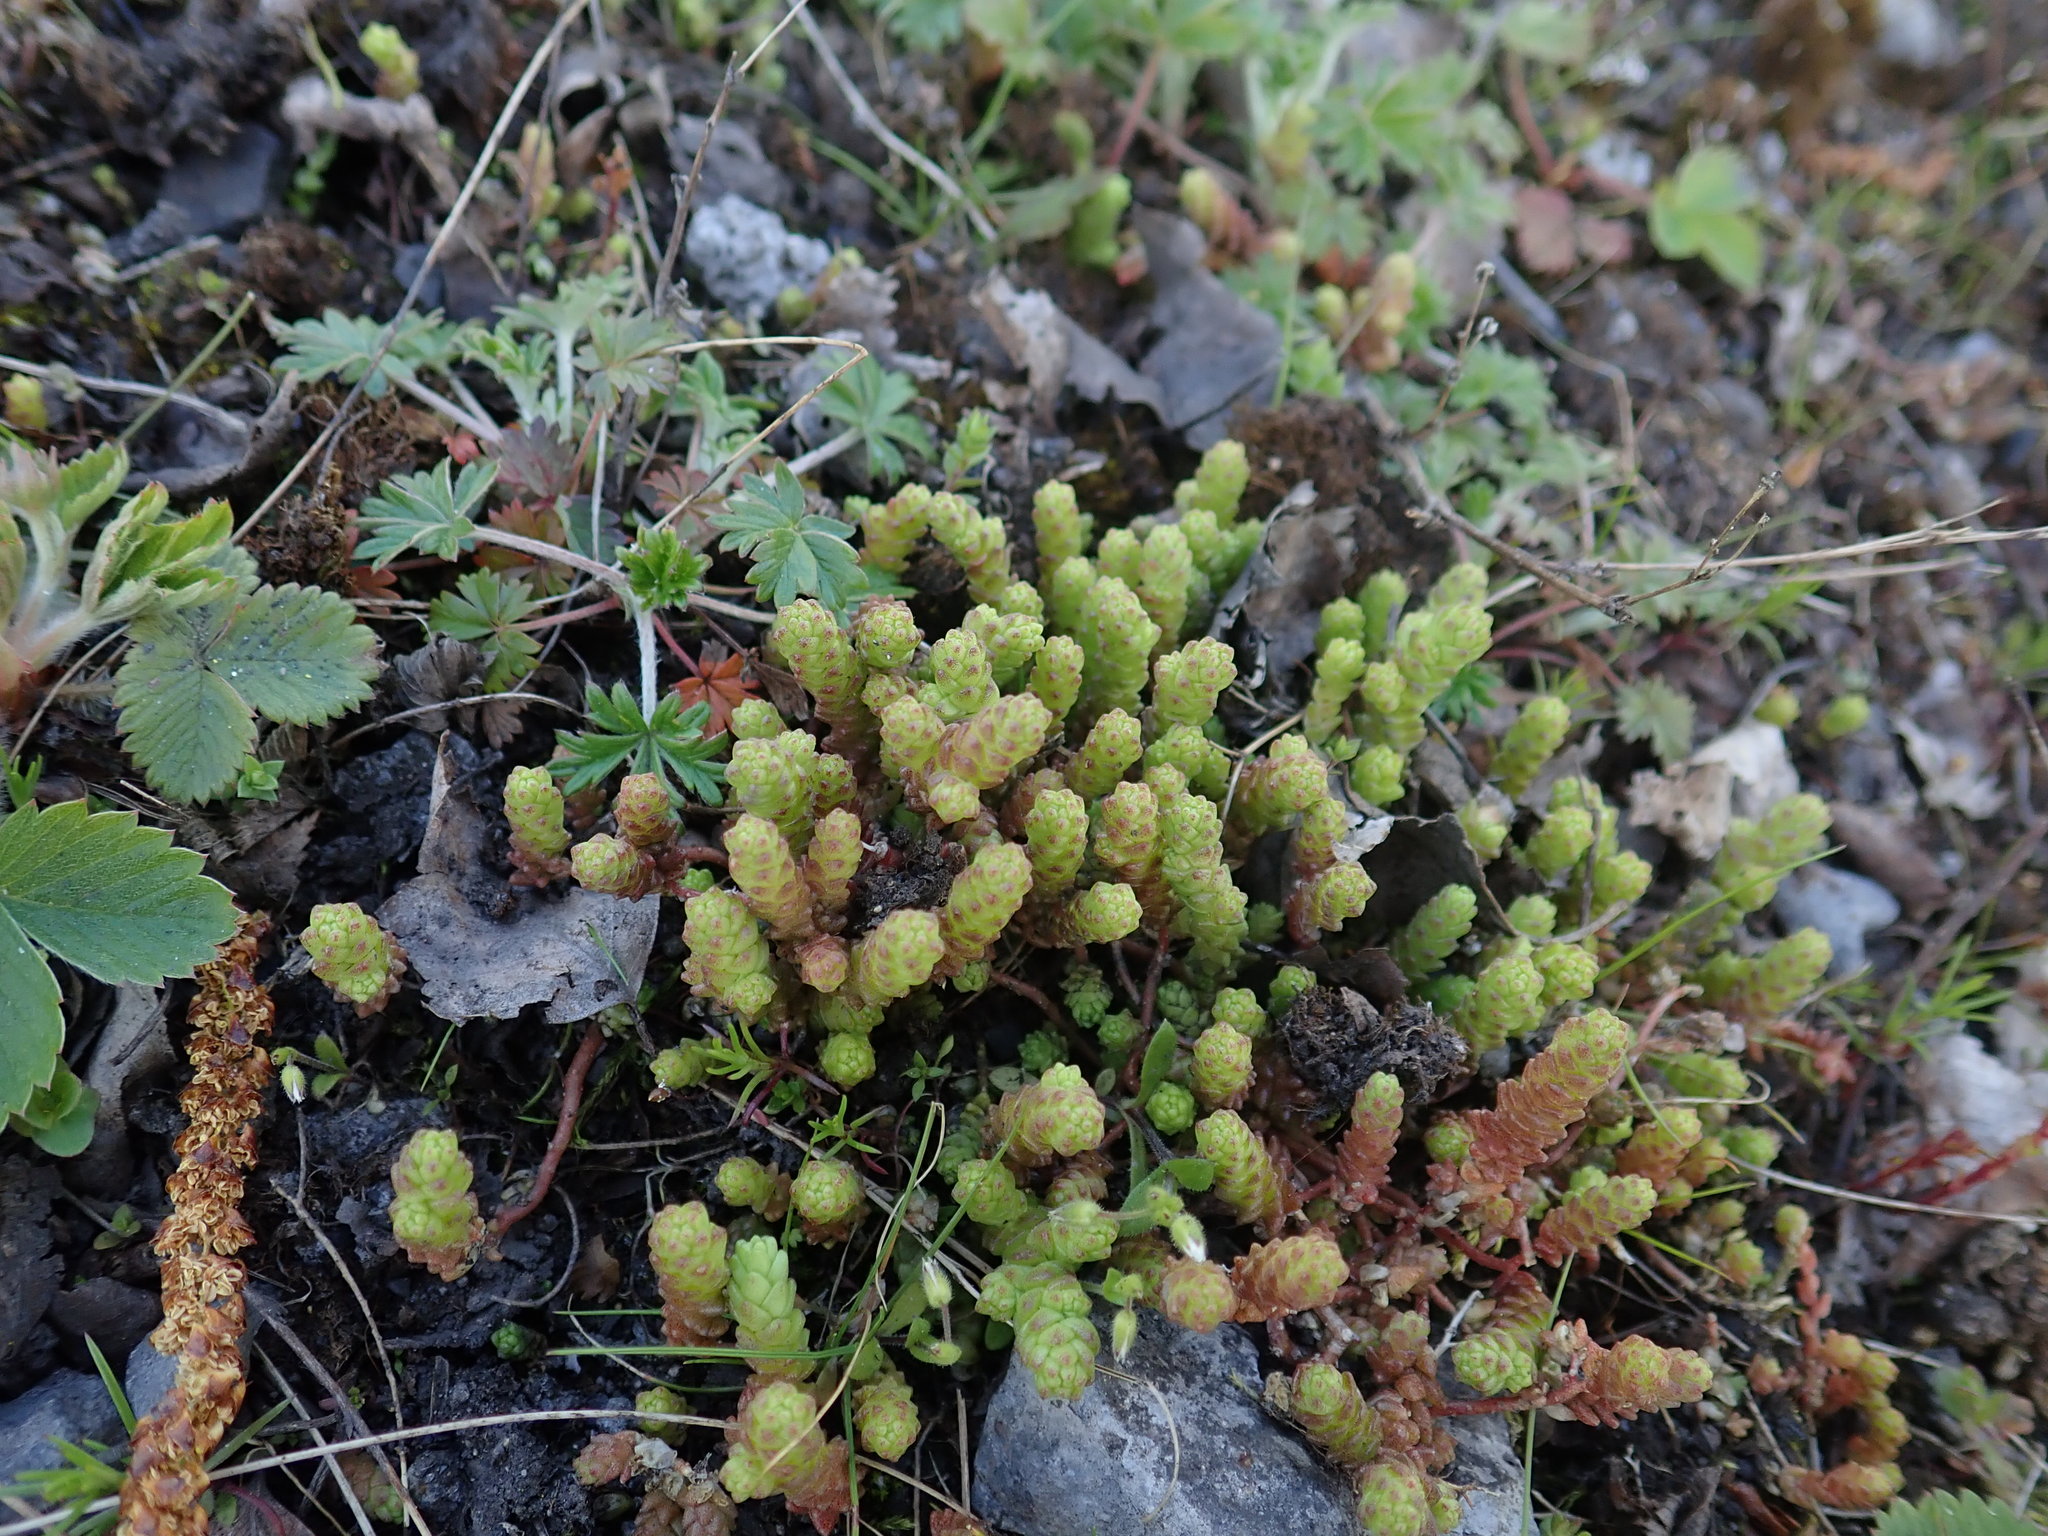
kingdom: Plantae
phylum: Tracheophyta
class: Magnoliopsida
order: Saxifragales
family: Crassulaceae
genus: Sedum
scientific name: Sedum acre
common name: Biting stonecrop
